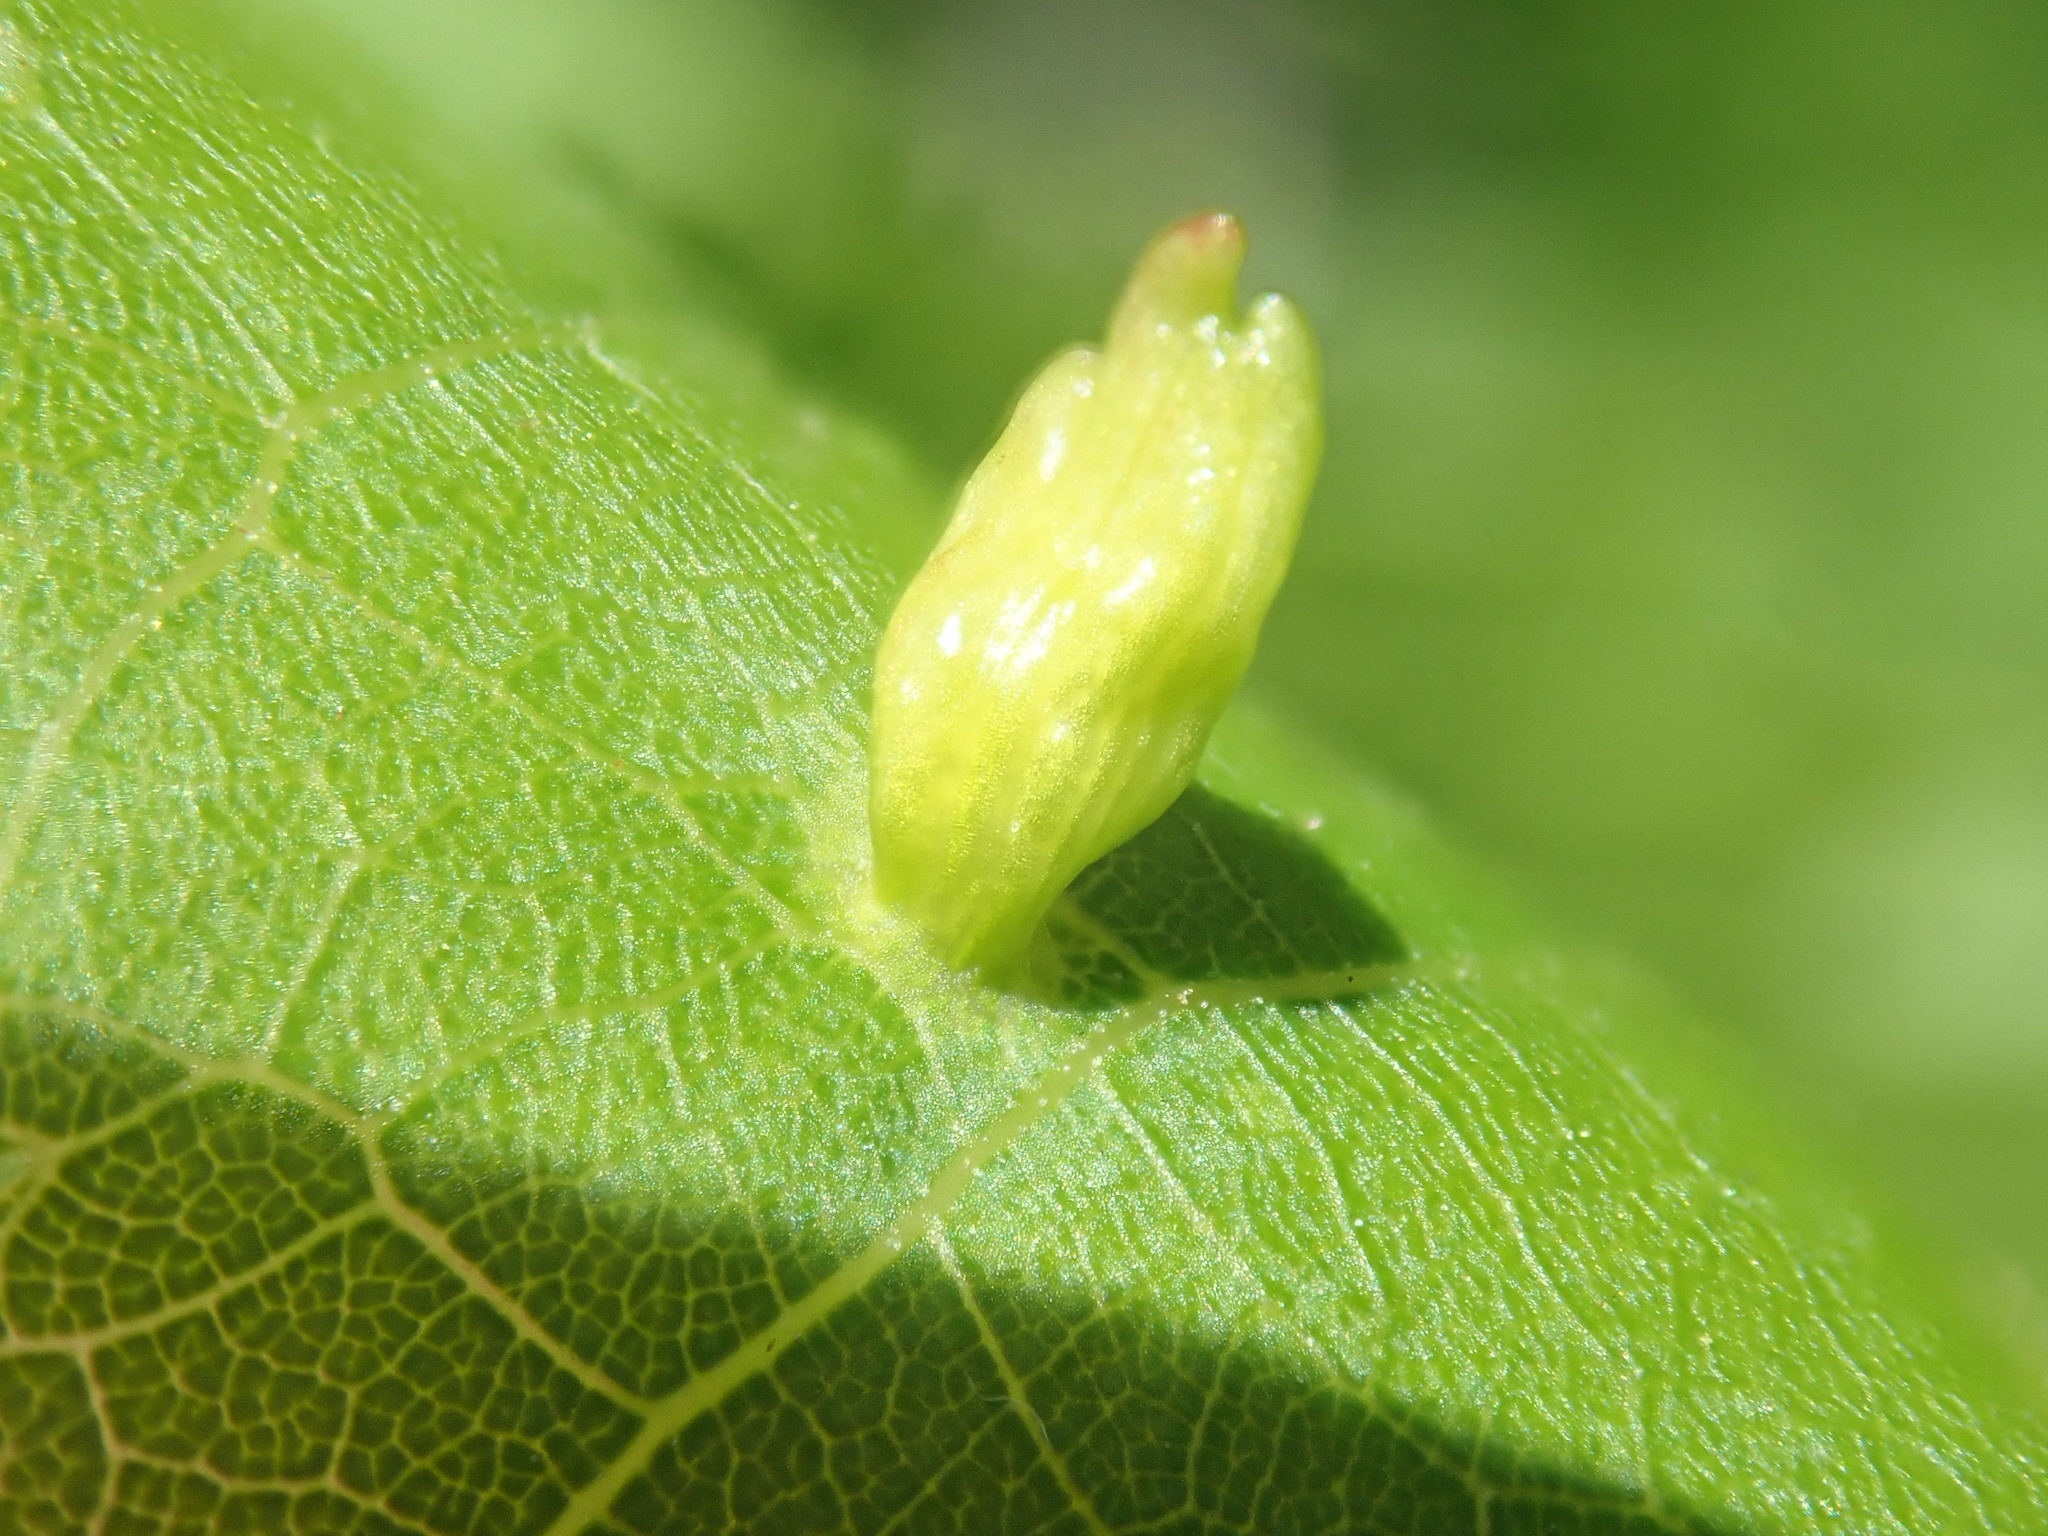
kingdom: Animalia
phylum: Arthropoda
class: Arachnida
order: Trombidiformes
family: Eriophyidae
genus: Eriophyes
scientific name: Eriophyes tiliae
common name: Red nail gall mite
